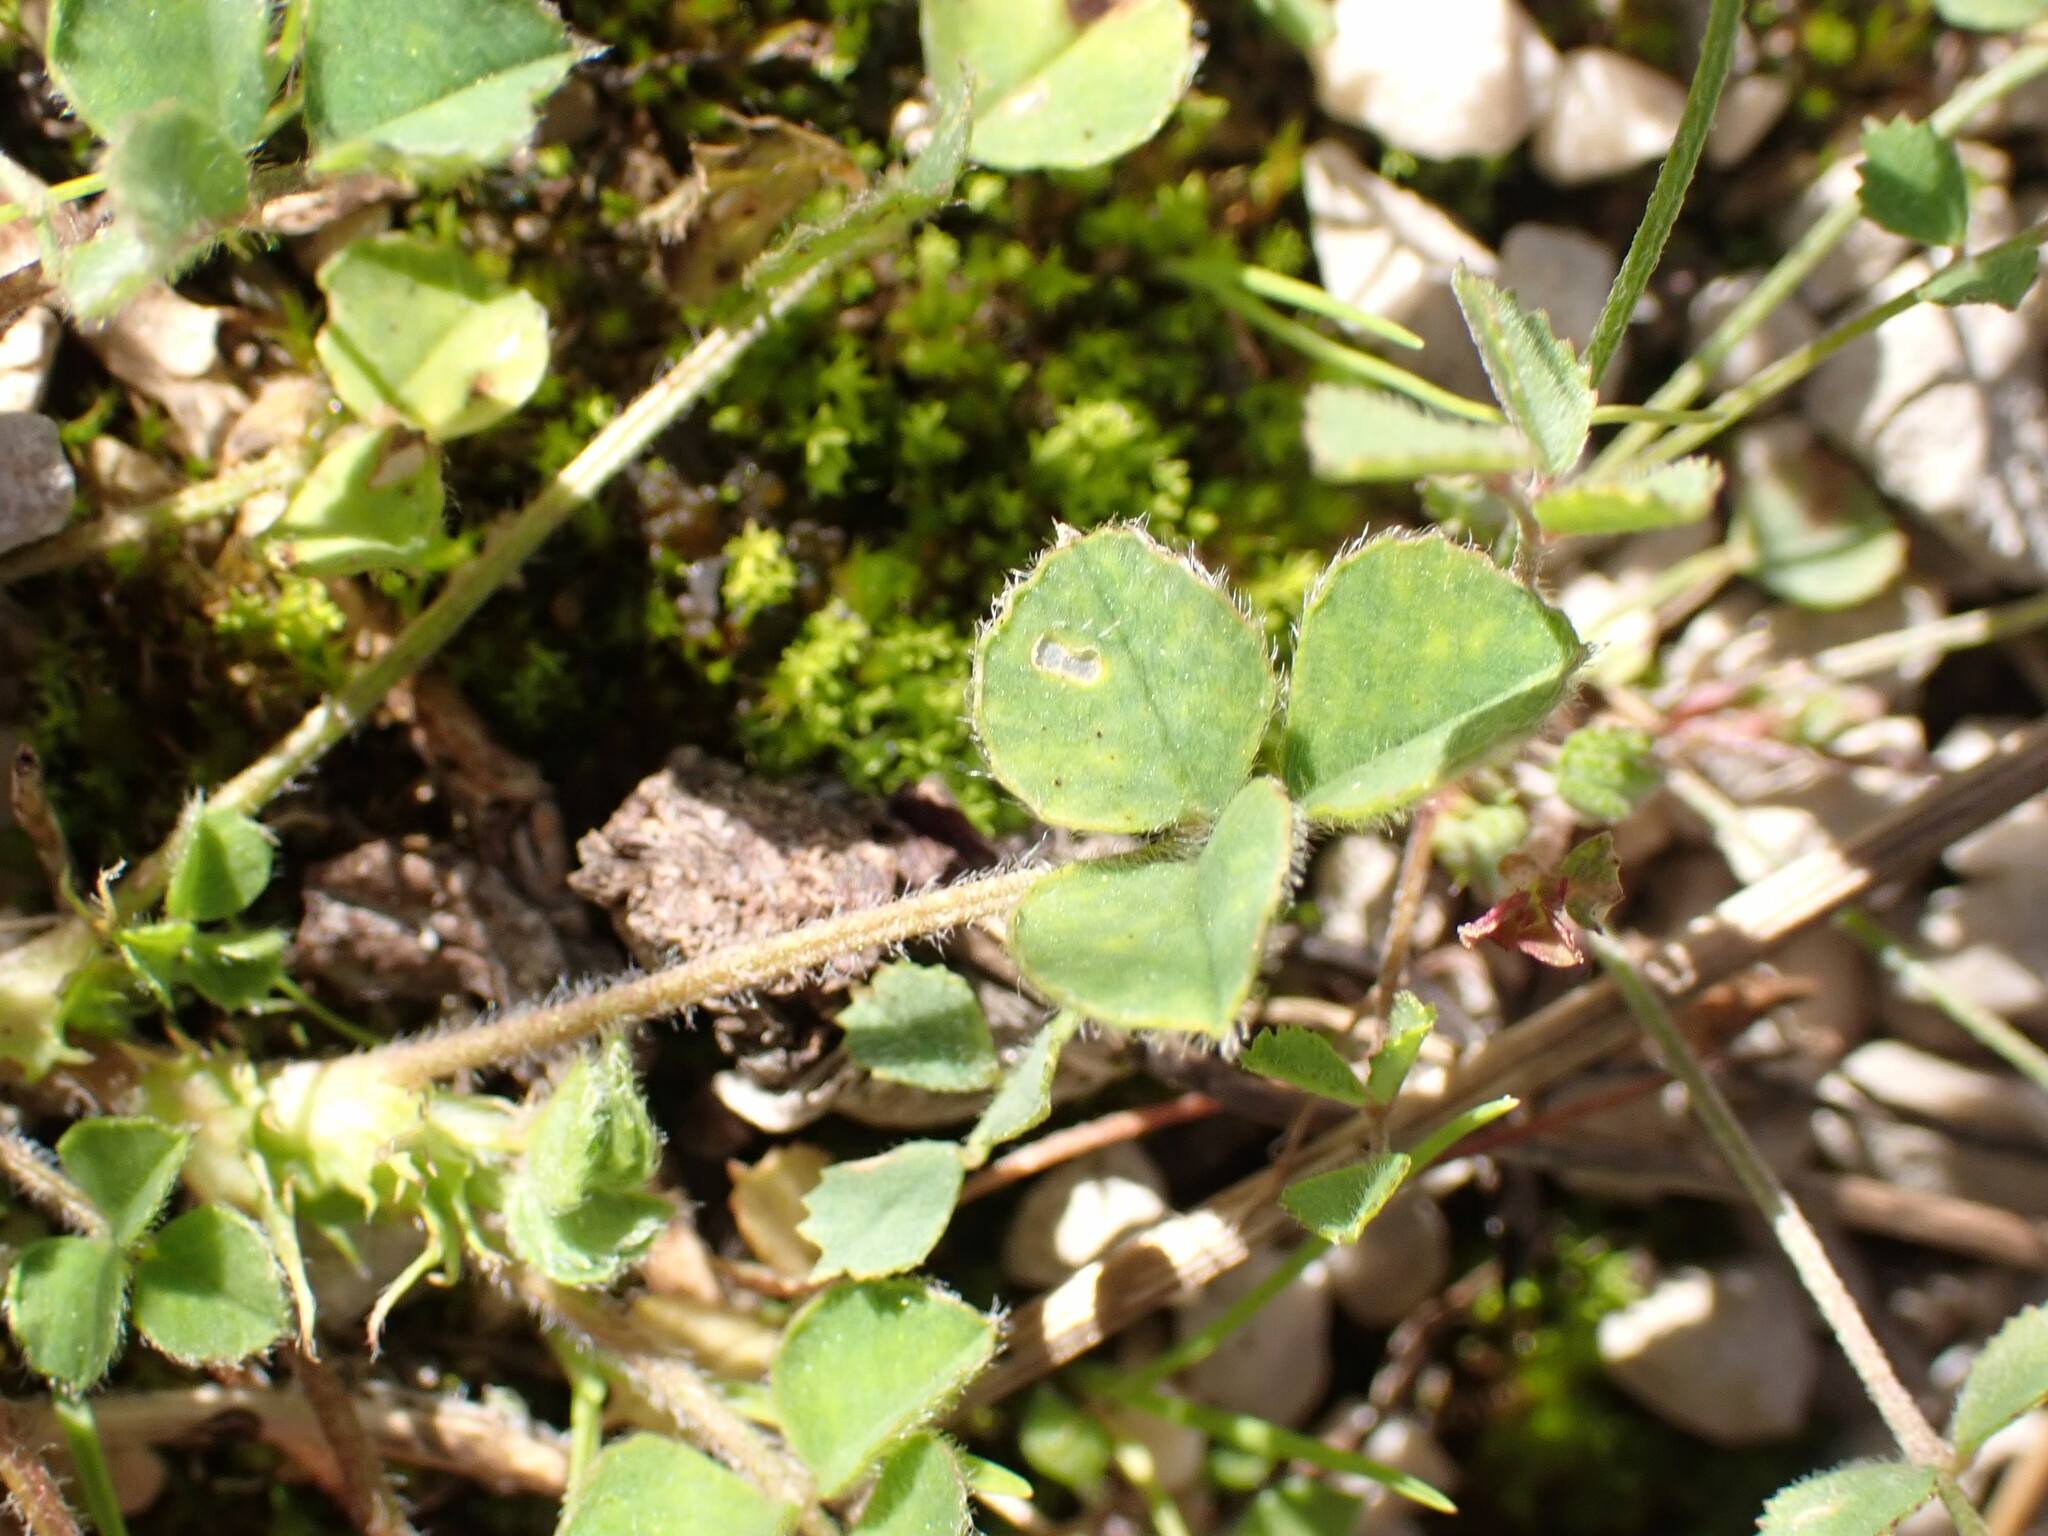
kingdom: Plantae
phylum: Tracheophyta
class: Magnoliopsida
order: Fabales
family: Fabaceae
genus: Medicago
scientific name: Medicago rigidula
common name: Tifton medic
